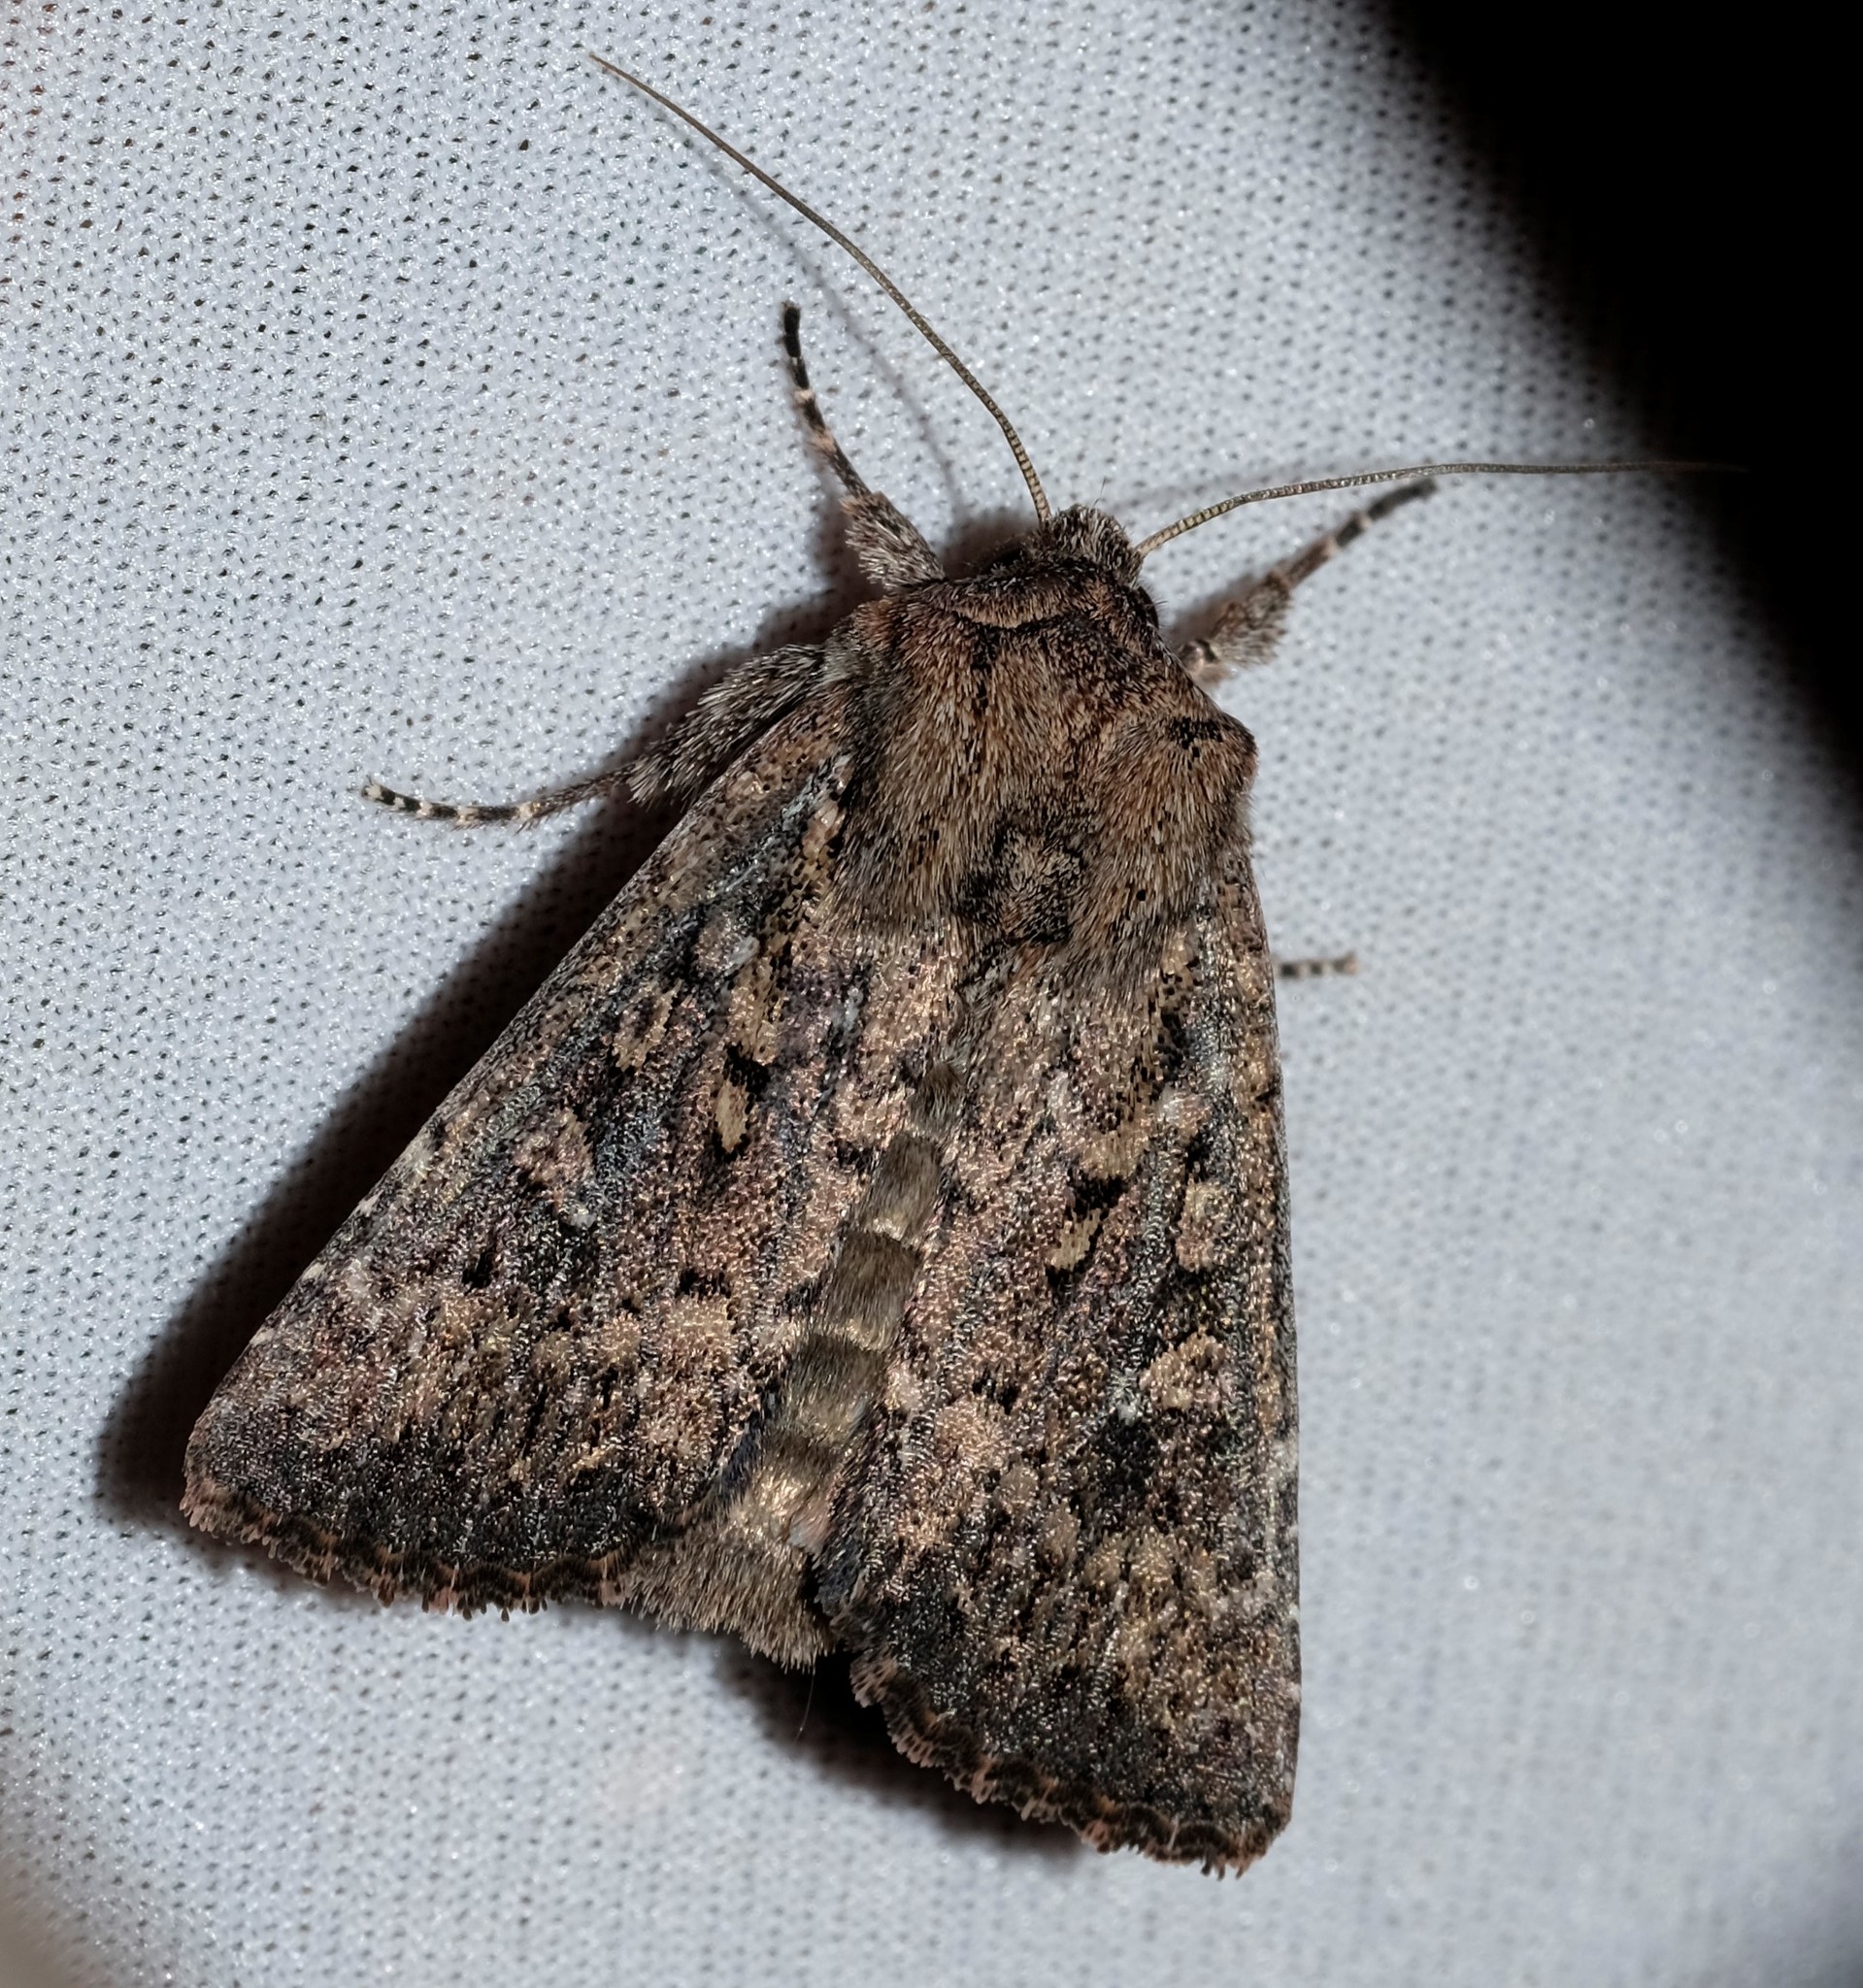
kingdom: Animalia
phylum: Arthropoda
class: Insecta
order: Lepidoptera
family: Noctuidae
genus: Dasygaster
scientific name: Dasygaster padockina
